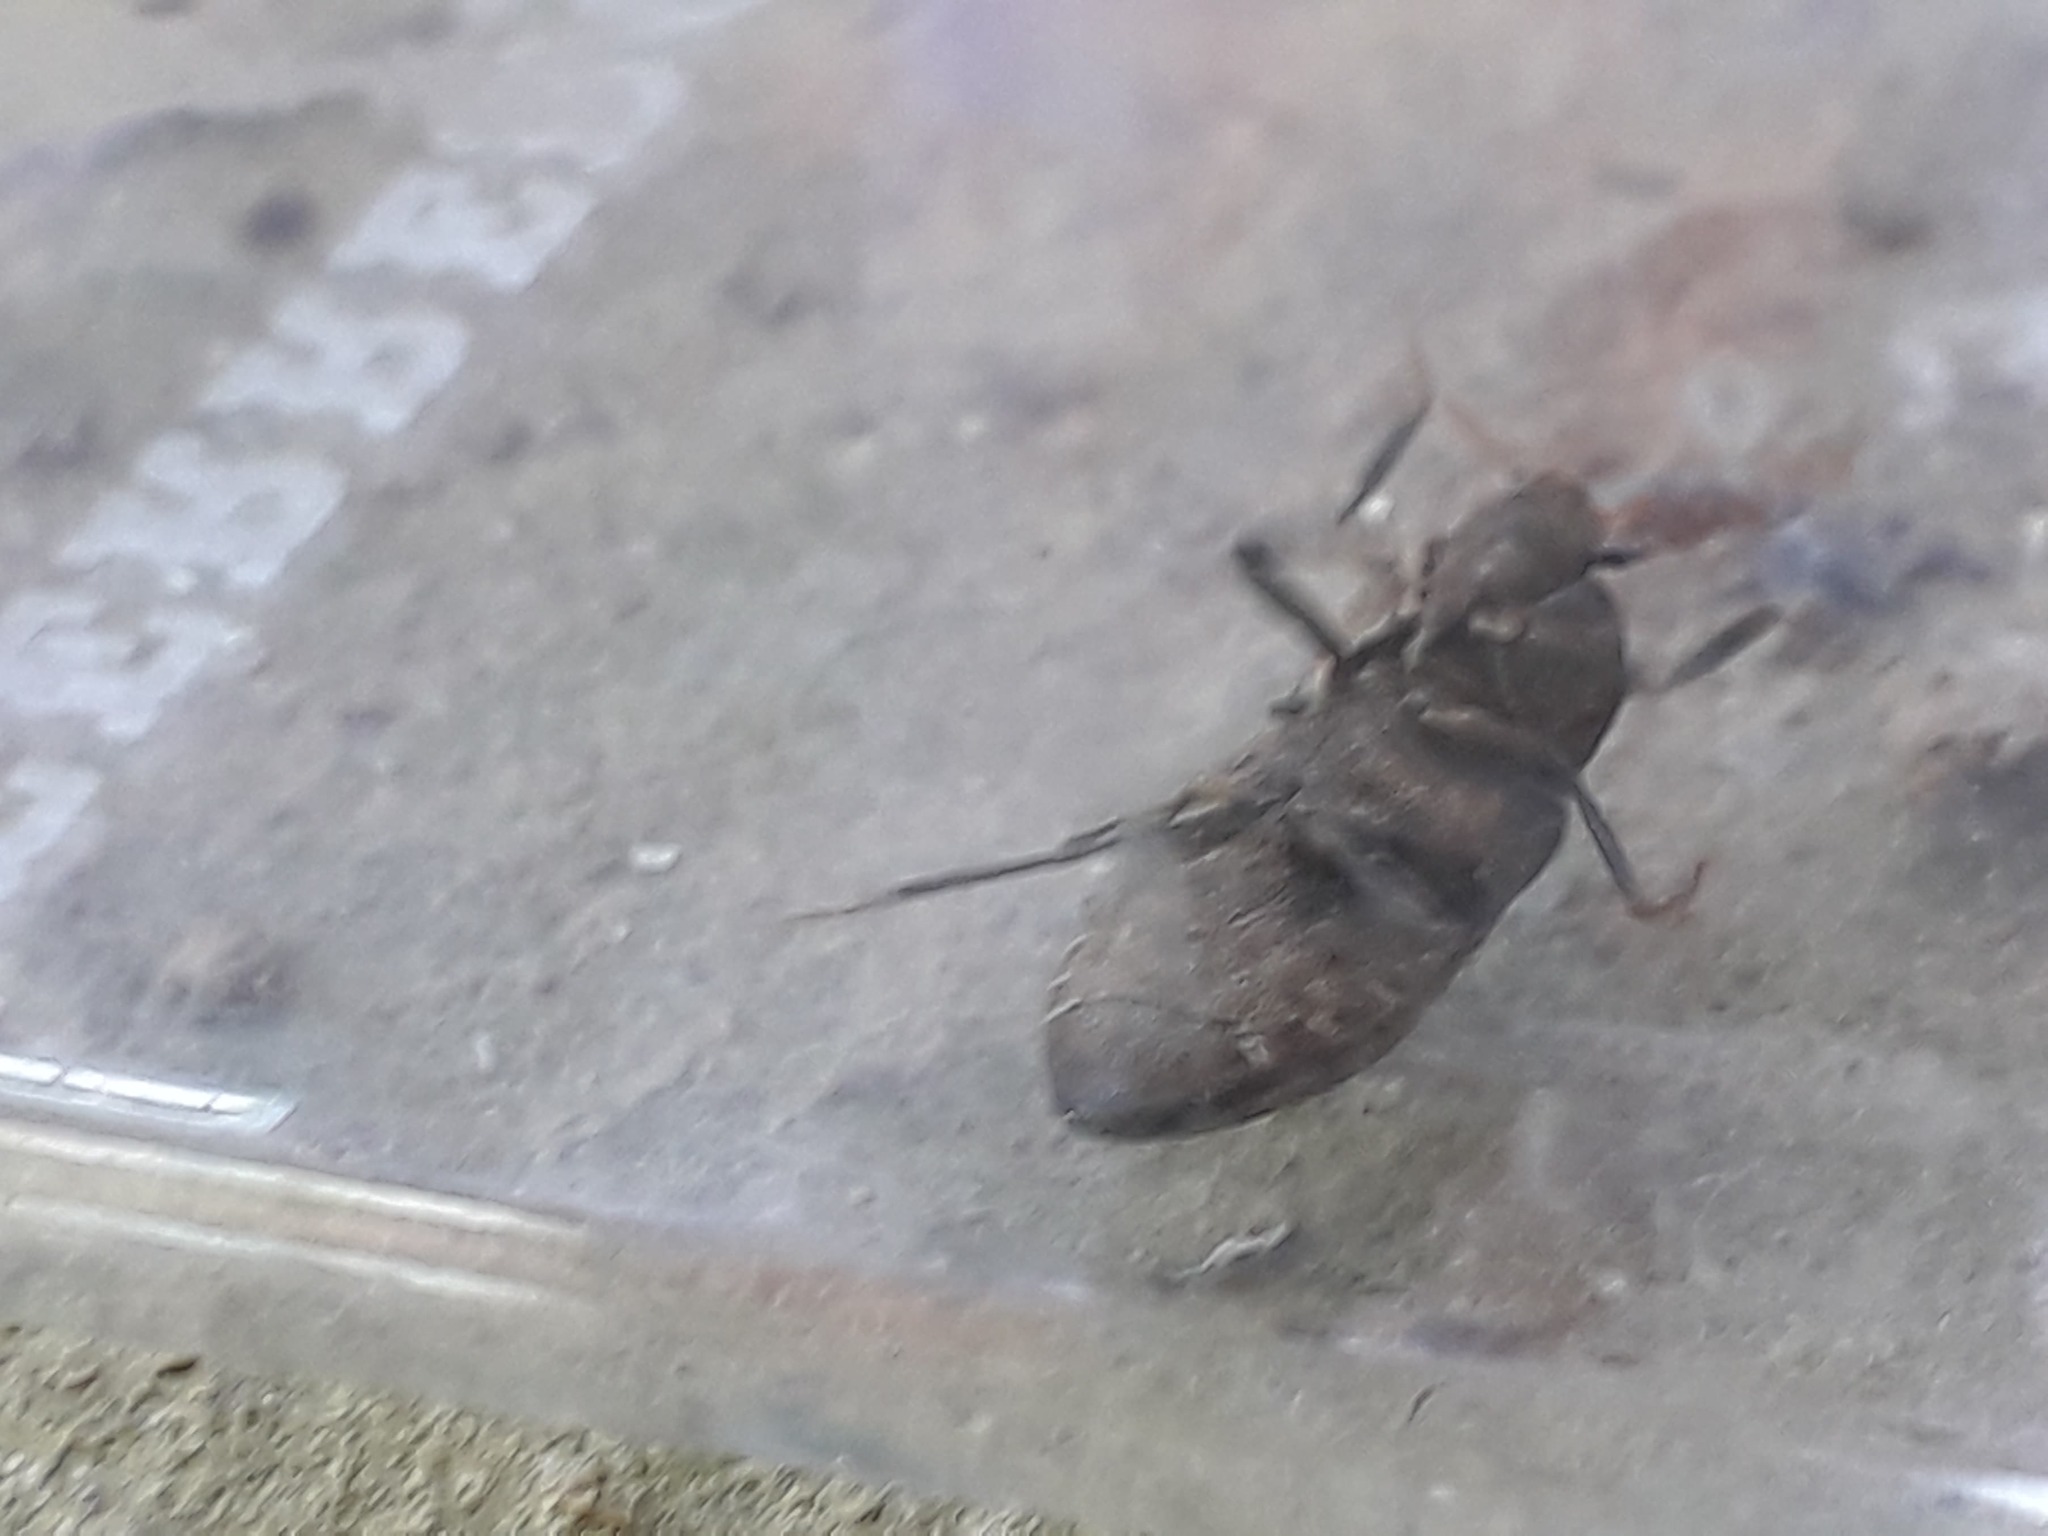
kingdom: Animalia
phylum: Arthropoda
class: Insecta
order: Coleoptera
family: Elateridae
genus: Agrypnus
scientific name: Agrypnus murinus
